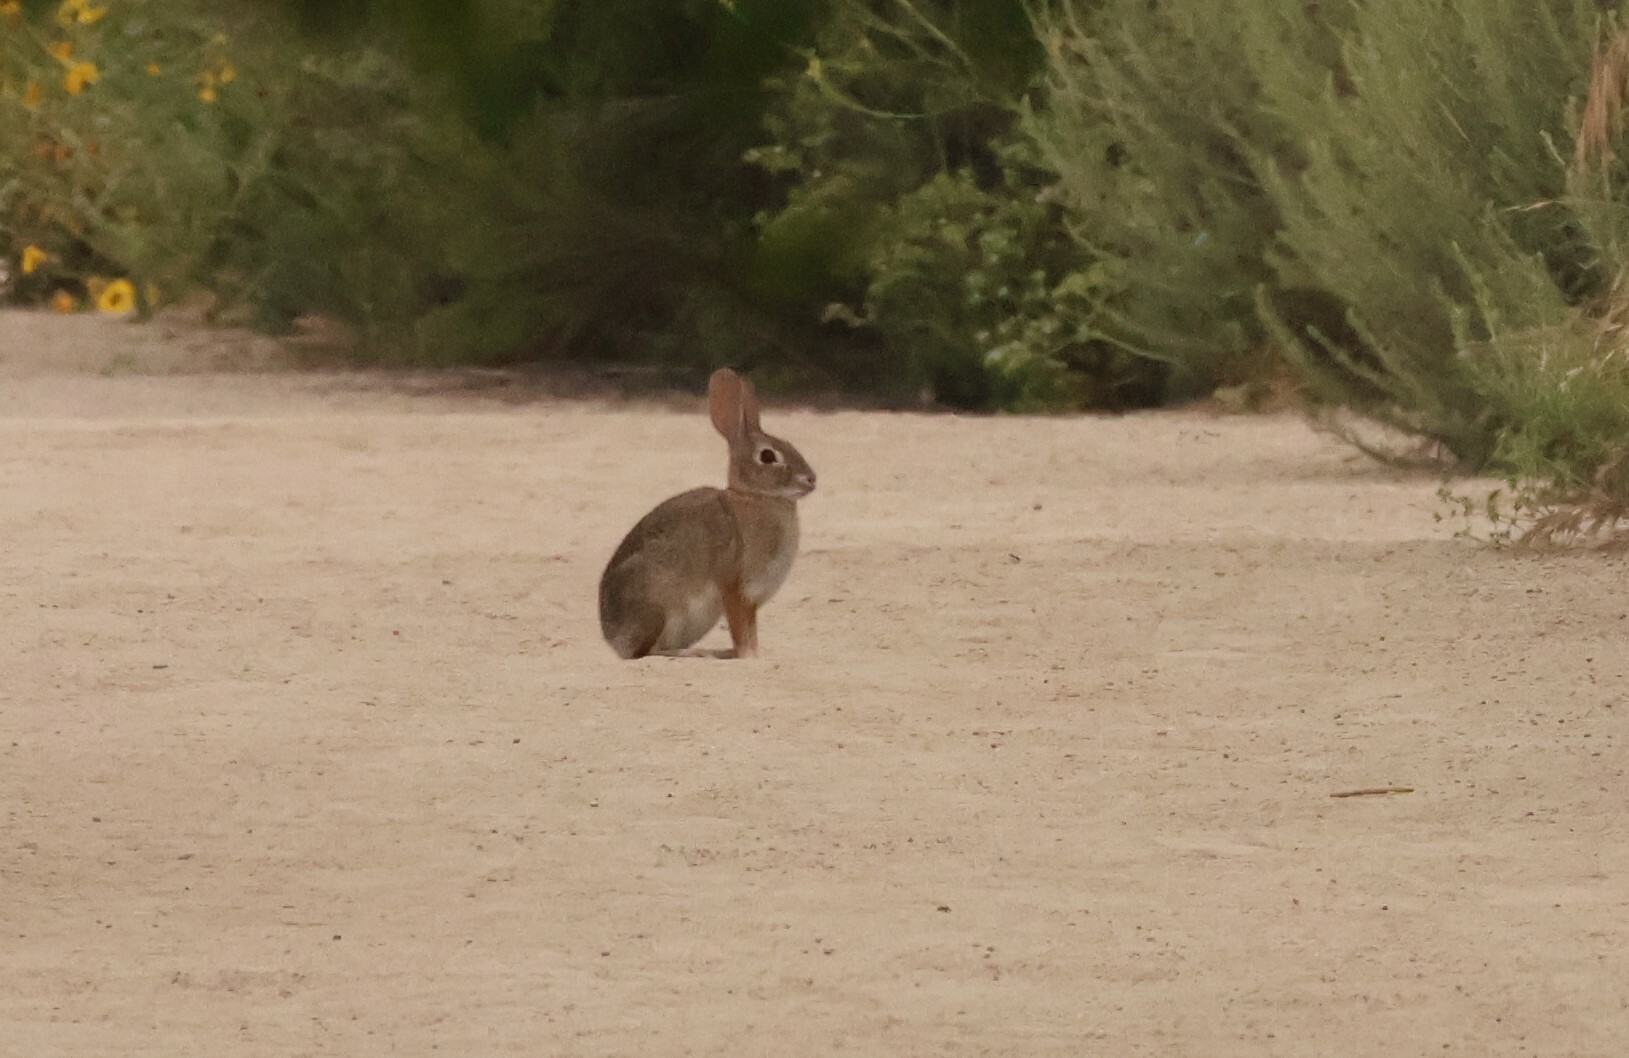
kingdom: Animalia
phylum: Chordata
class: Mammalia
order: Lagomorpha
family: Leporidae
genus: Sylvilagus
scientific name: Sylvilagus audubonii
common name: Desert cottontail
